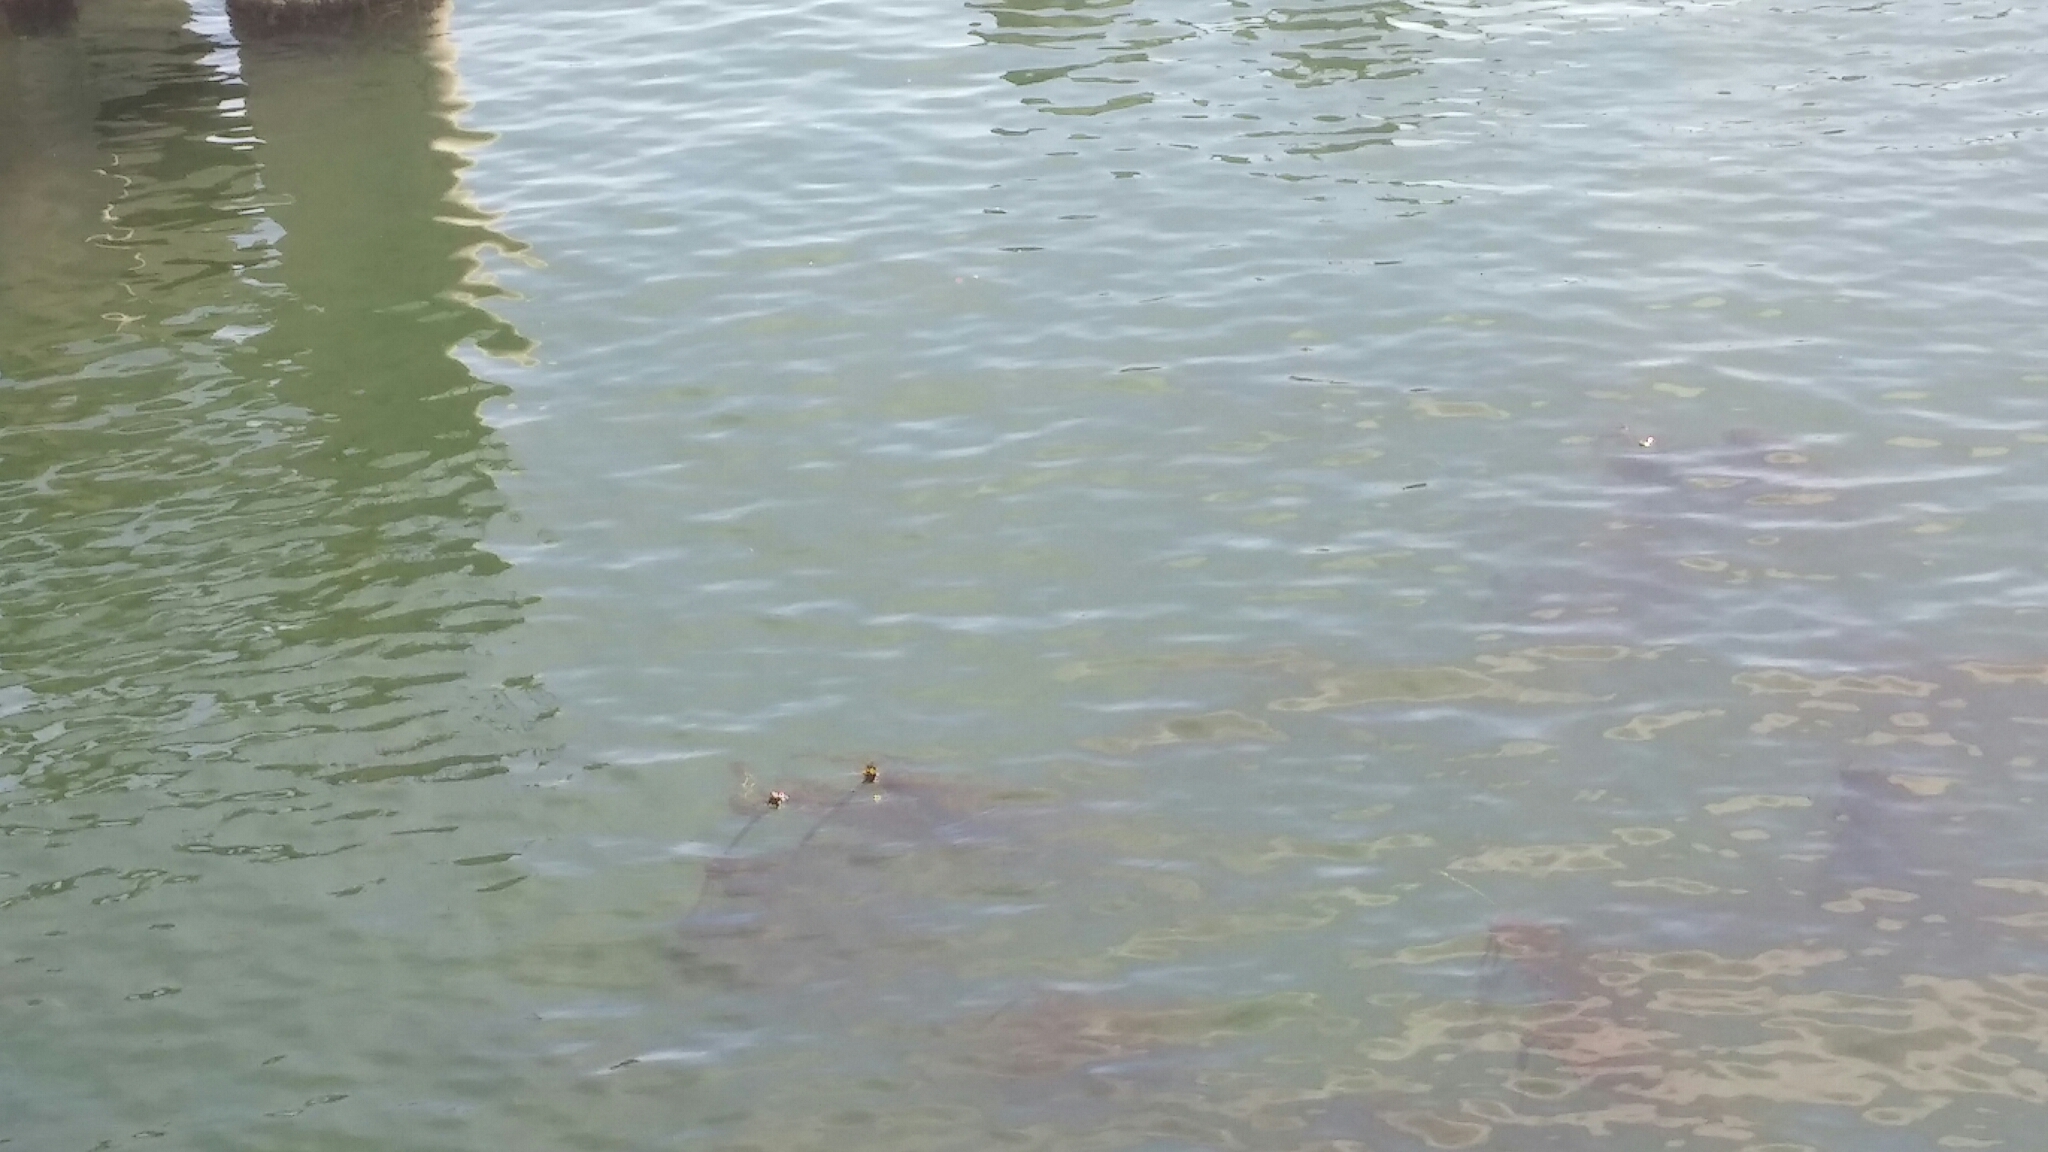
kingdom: Chromista
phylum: Ochrophyta
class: Phaeophyceae
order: Laminariales
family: Laminariaceae
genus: Nereocystis
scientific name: Nereocystis luetkeana
